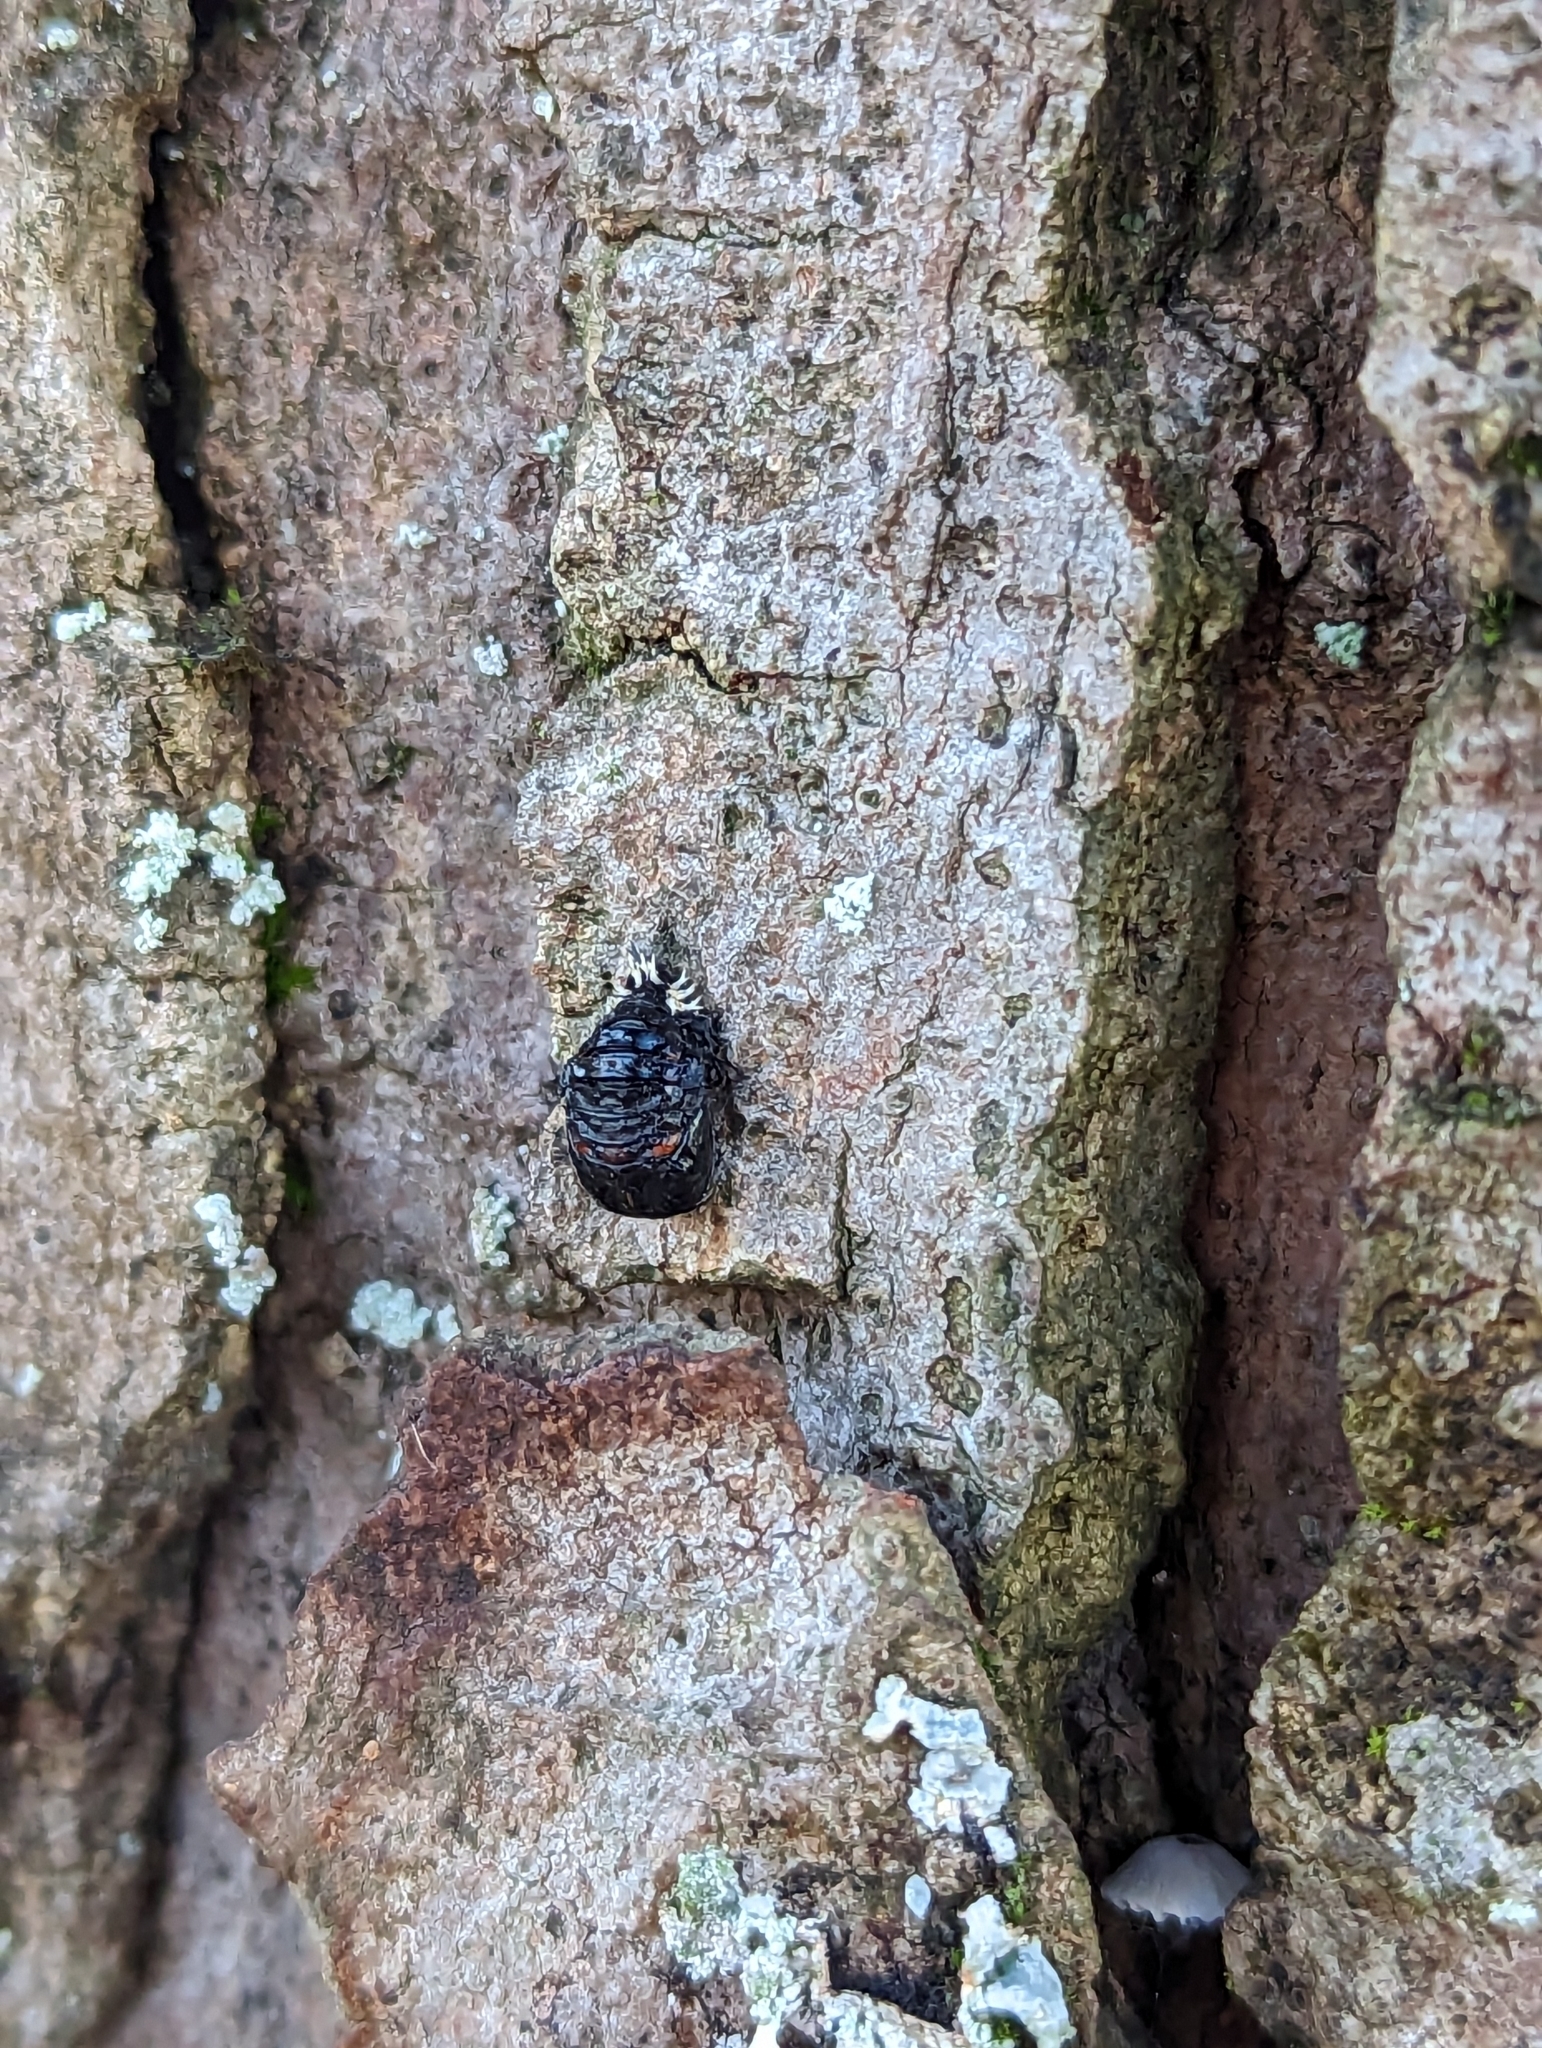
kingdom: Animalia
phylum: Arthropoda
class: Insecta
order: Coleoptera
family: Coccinellidae
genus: Harmonia
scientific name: Harmonia axyridis
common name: Harlequin ladybird
